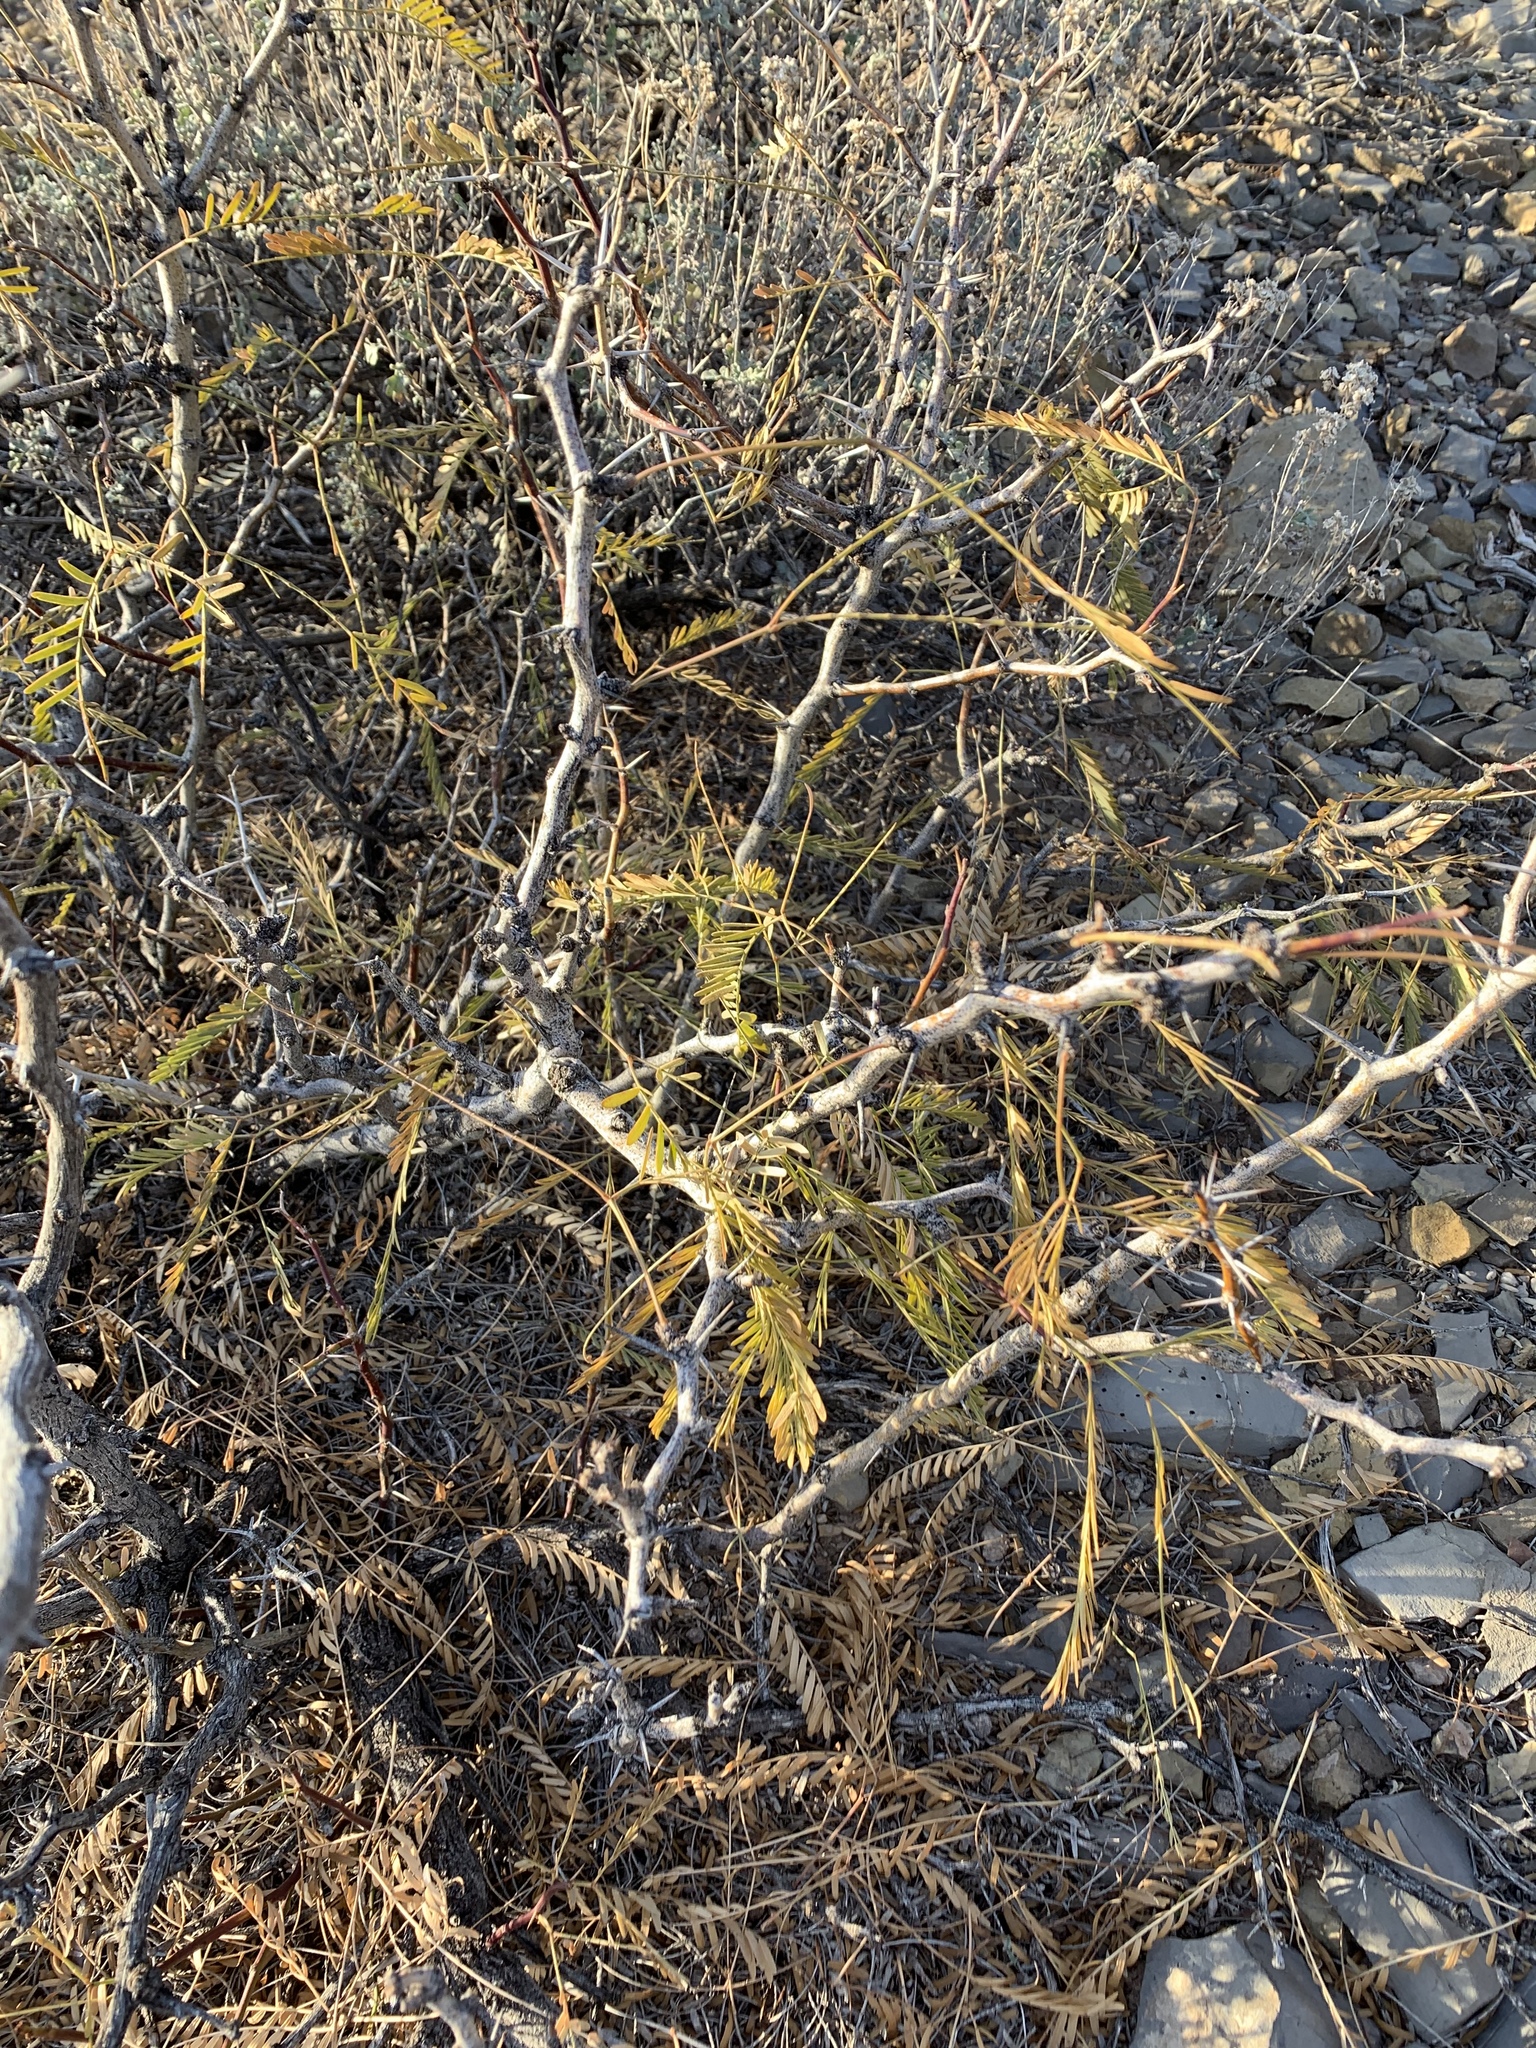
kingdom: Plantae
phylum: Tracheophyta
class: Magnoliopsida
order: Fabales
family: Fabaceae
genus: Prosopis
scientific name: Prosopis glandulosa
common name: Honey mesquite
